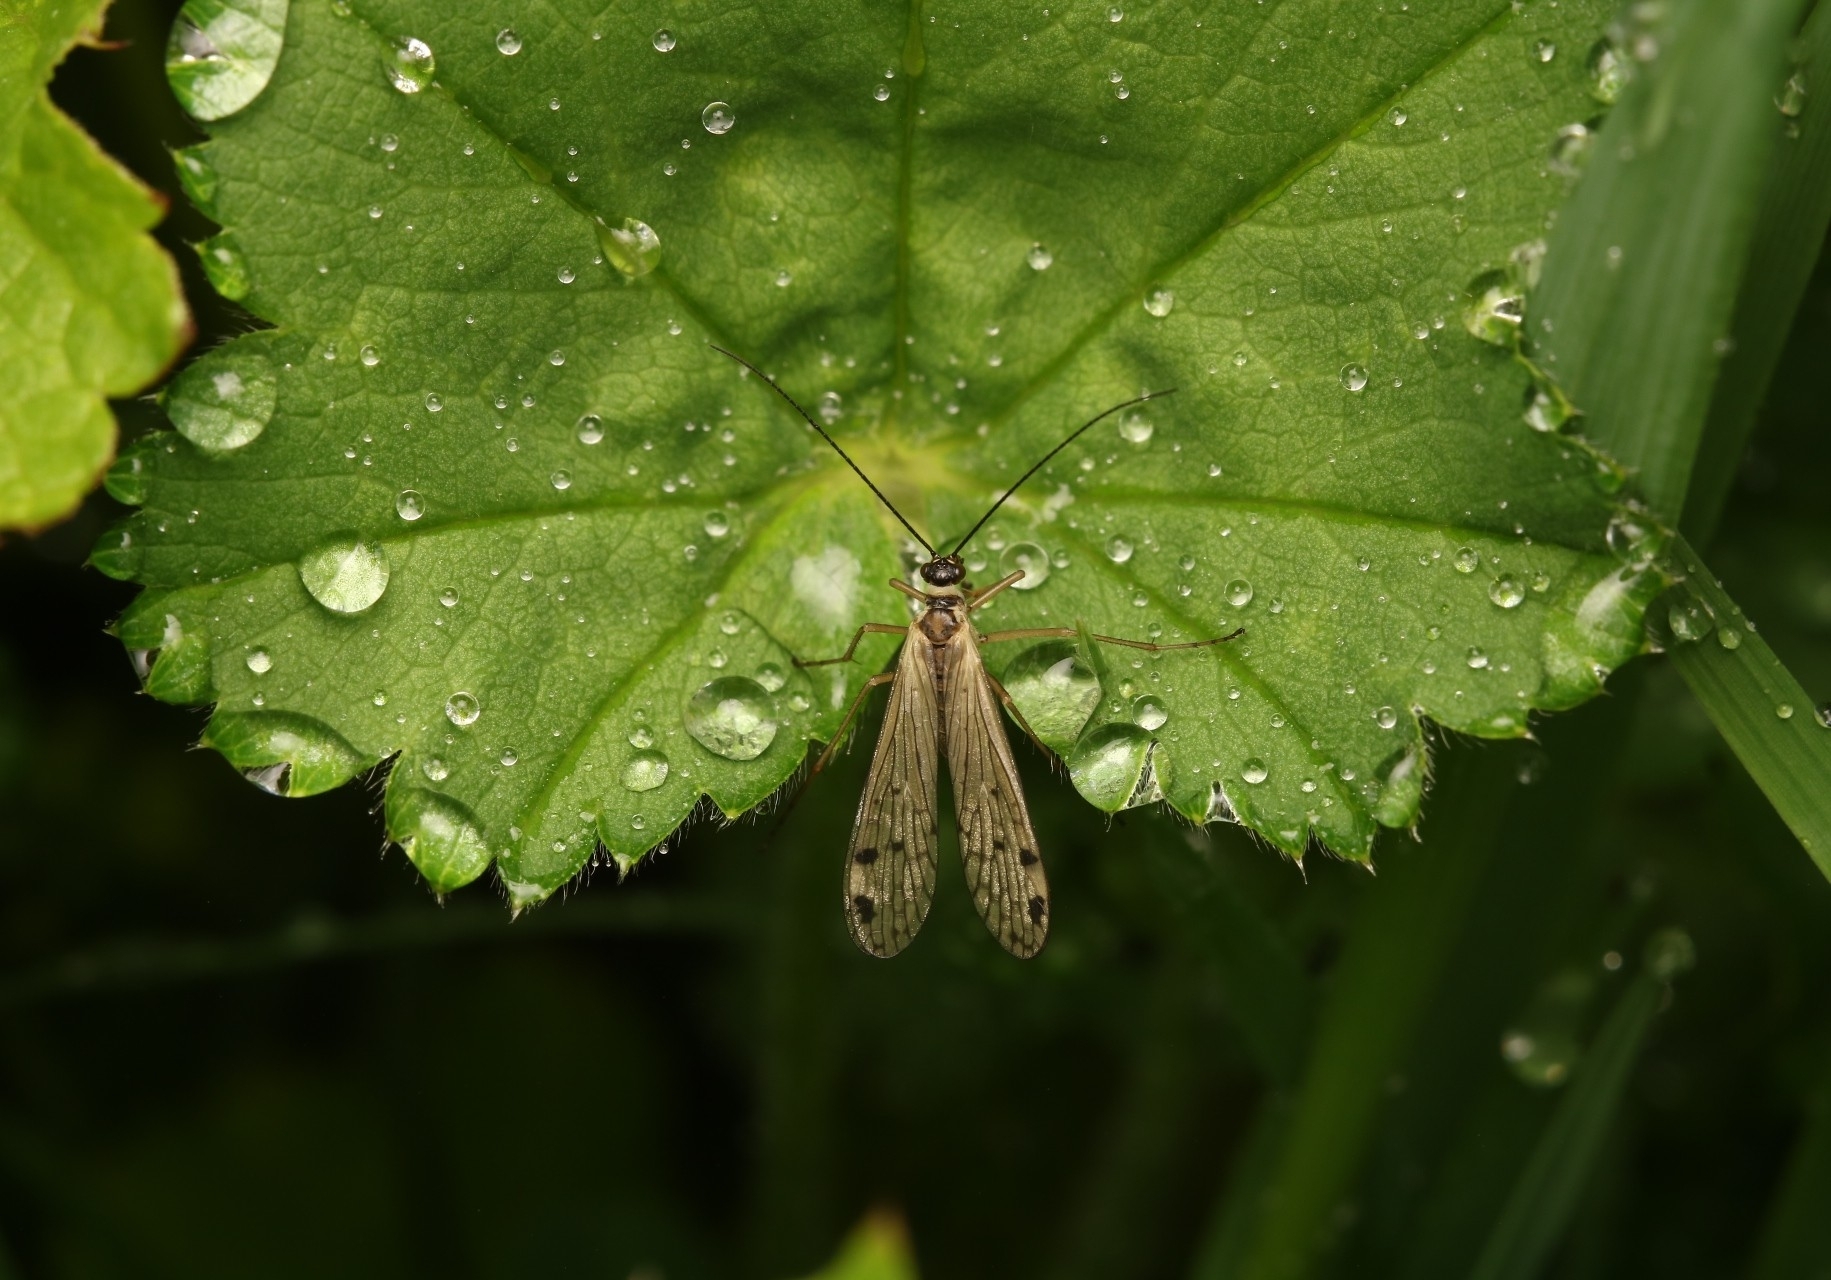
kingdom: Animalia
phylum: Arthropoda
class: Insecta
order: Mecoptera
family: Panorpidae
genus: Panorpa
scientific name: Panorpa alpina
